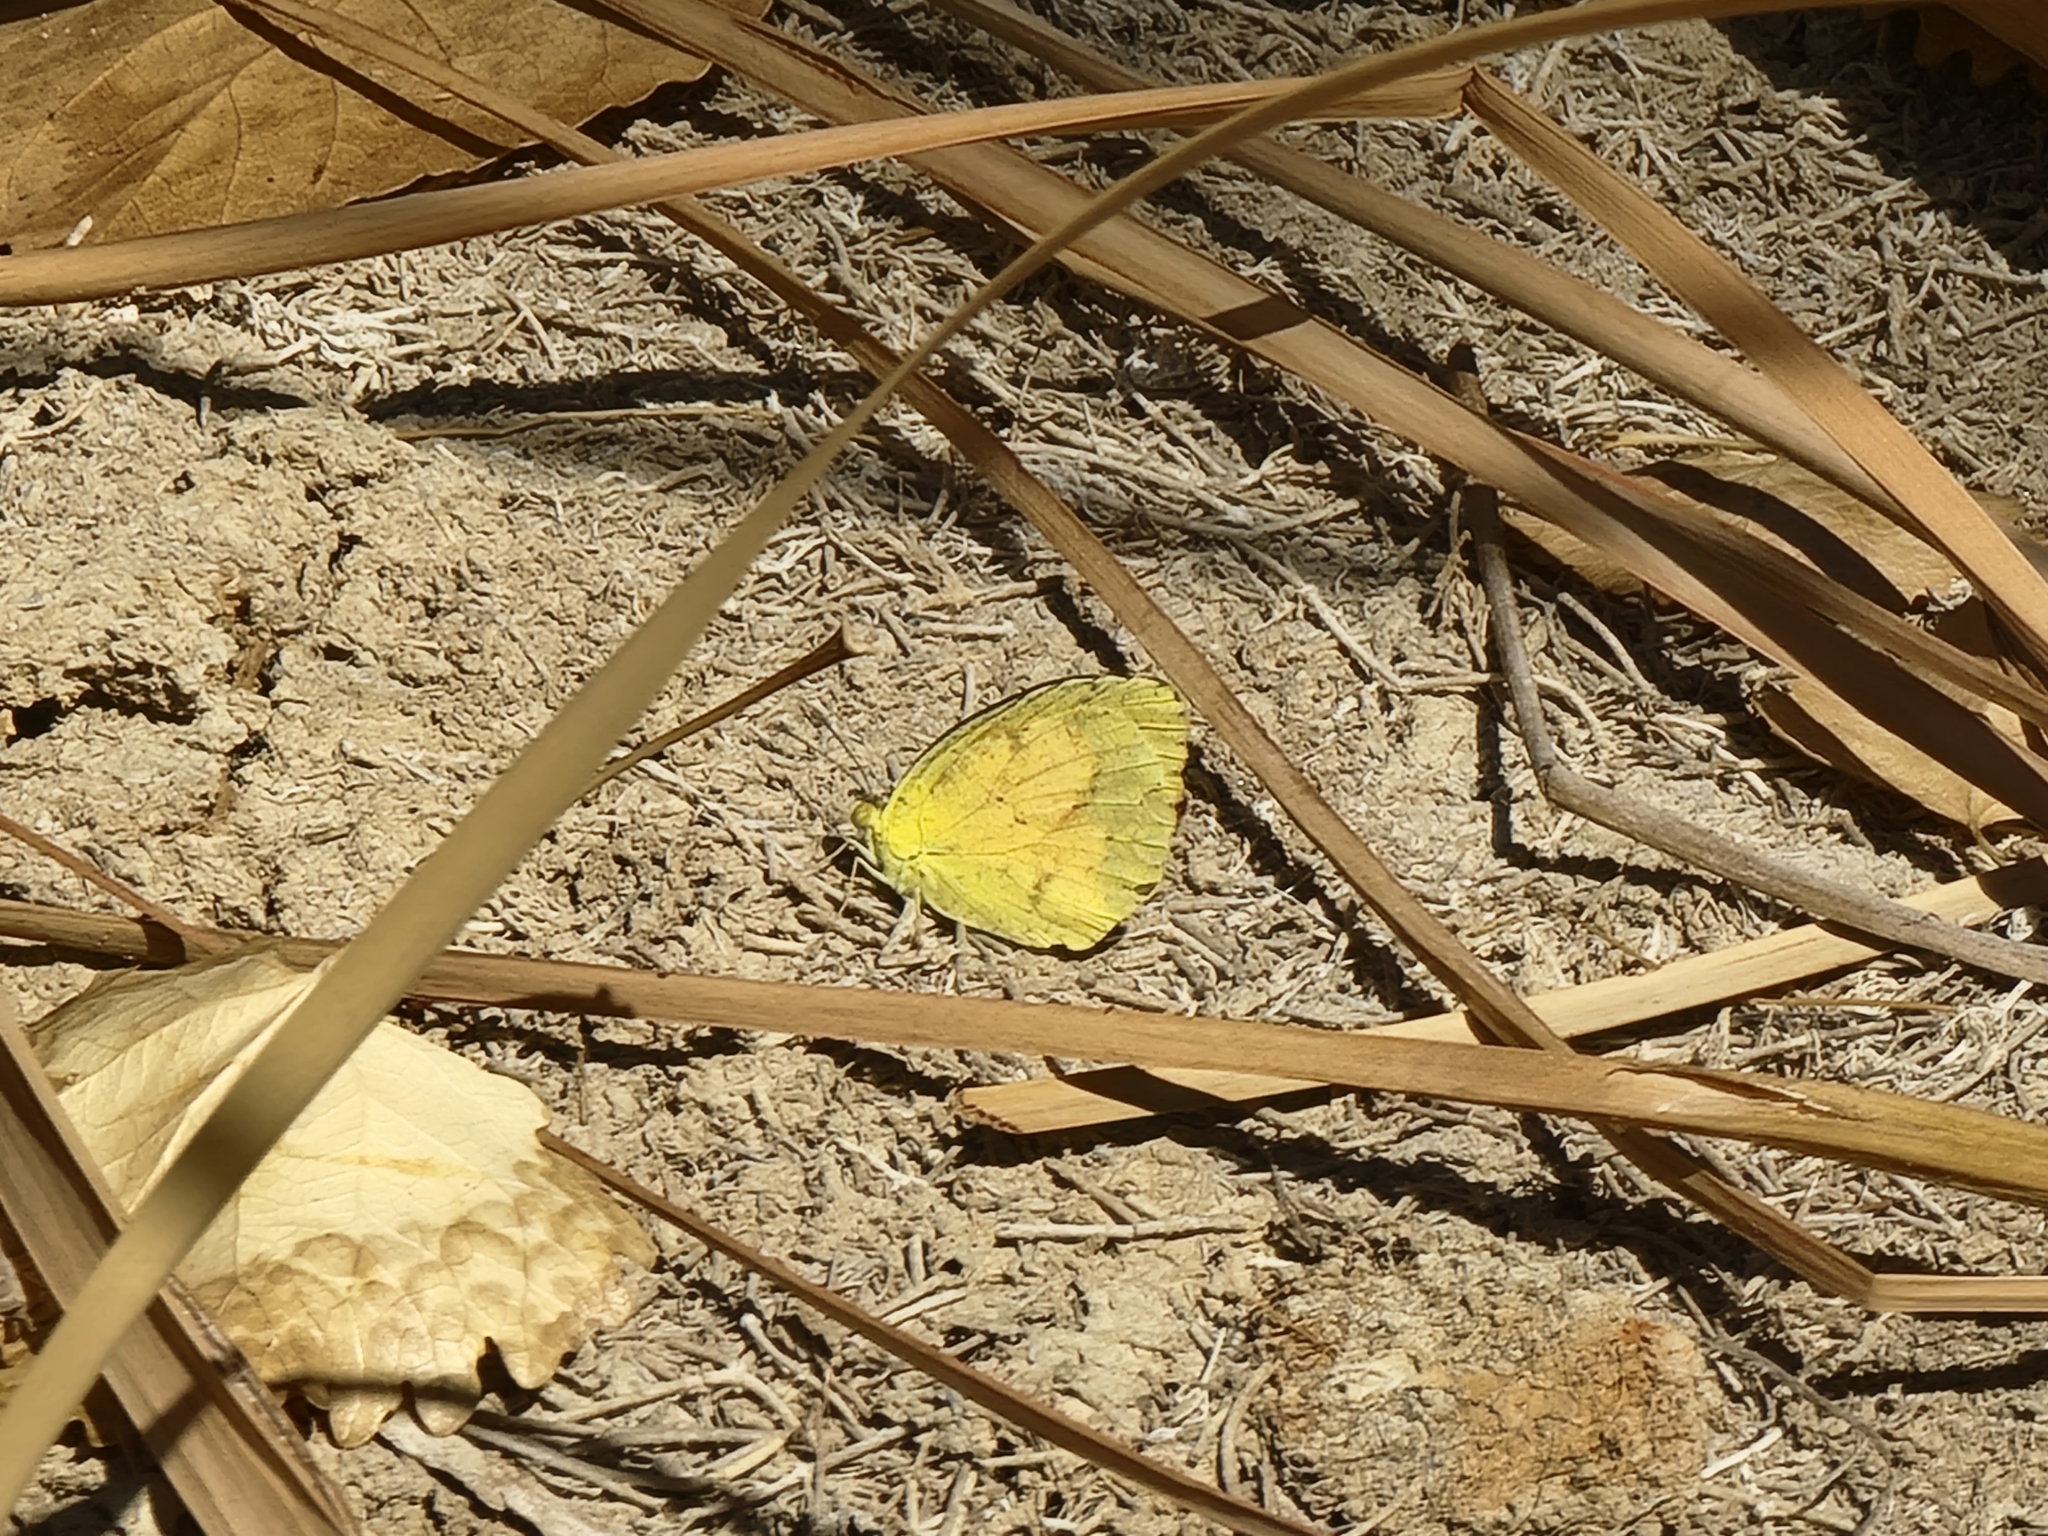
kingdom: Animalia
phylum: Arthropoda
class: Insecta
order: Lepidoptera
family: Pieridae
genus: Abaeis
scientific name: Abaeis nicippe
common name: Sleepy orange
